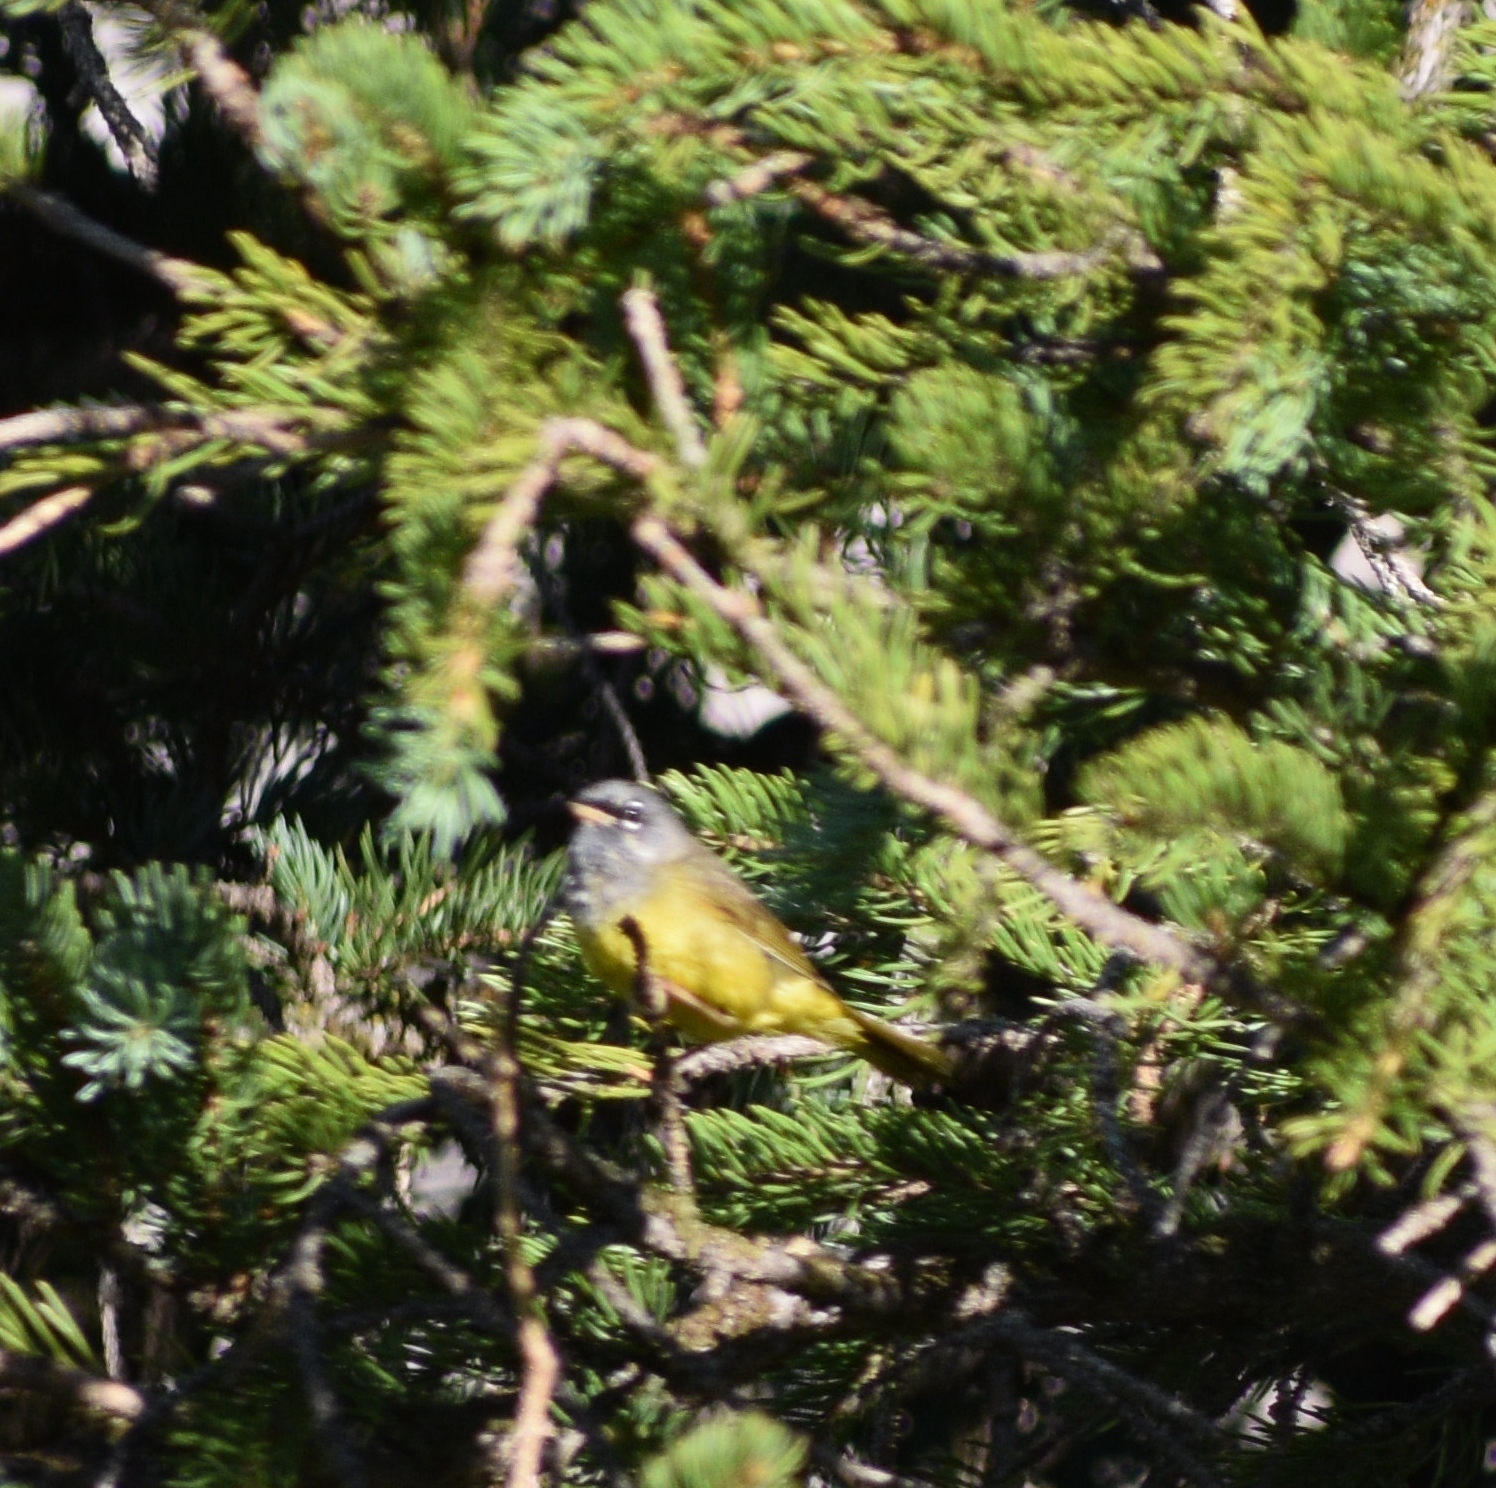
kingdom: Animalia
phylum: Chordata
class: Aves
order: Passeriformes
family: Parulidae
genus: Geothlypis
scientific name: Geothlypis tolmiei
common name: Macgillivray's warbler
